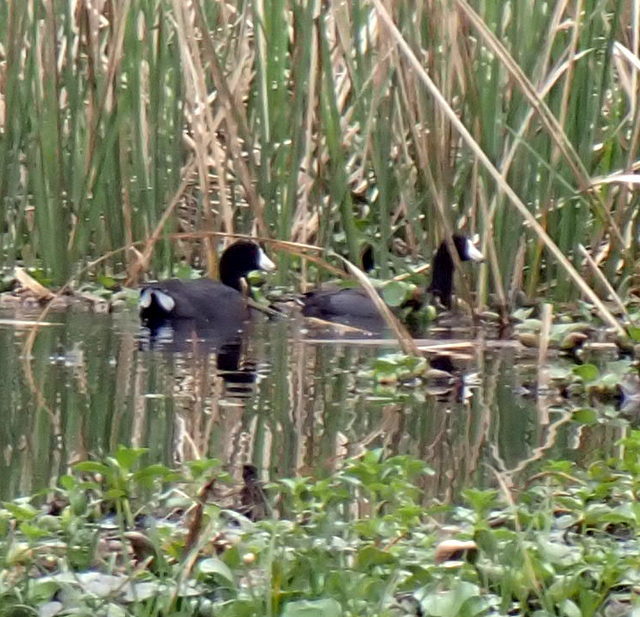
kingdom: Animalia
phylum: Chordata
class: Aves
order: Gruiformes
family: Rallidae
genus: Fulica
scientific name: Fulica americana
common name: American coot
